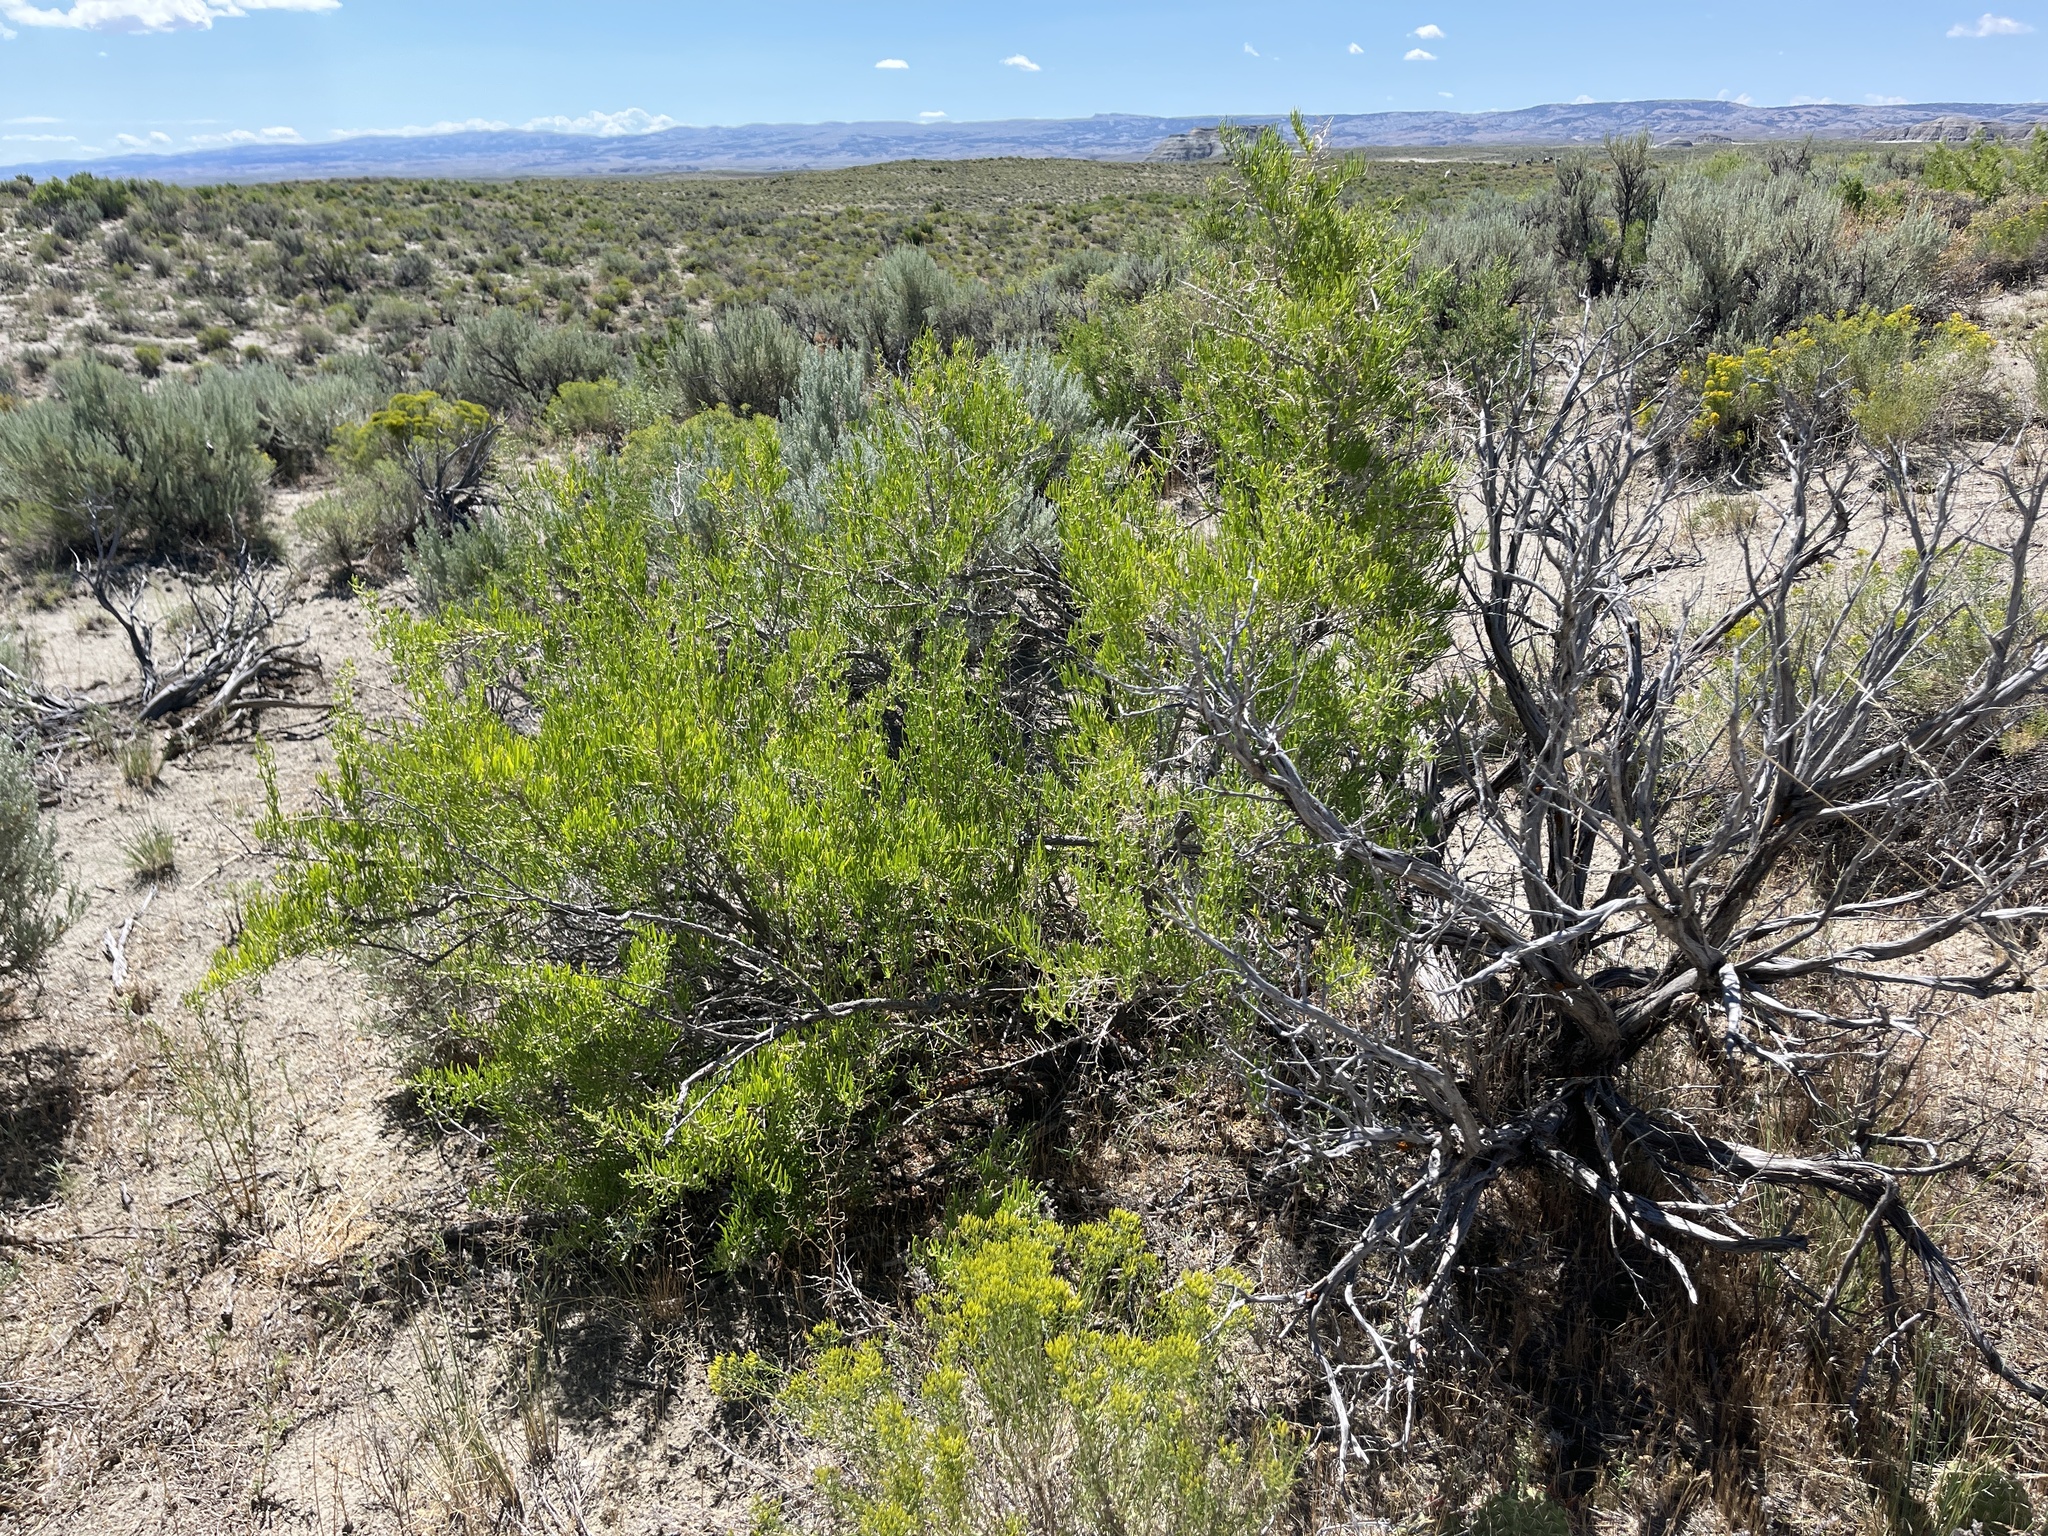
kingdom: Plantae
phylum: Tracheophyta
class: Magnoliopsida
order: Caryophyllales
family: Sarcobataceae
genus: Sarcobatus
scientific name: Sarcobatus vermiculatus
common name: Greasewood
